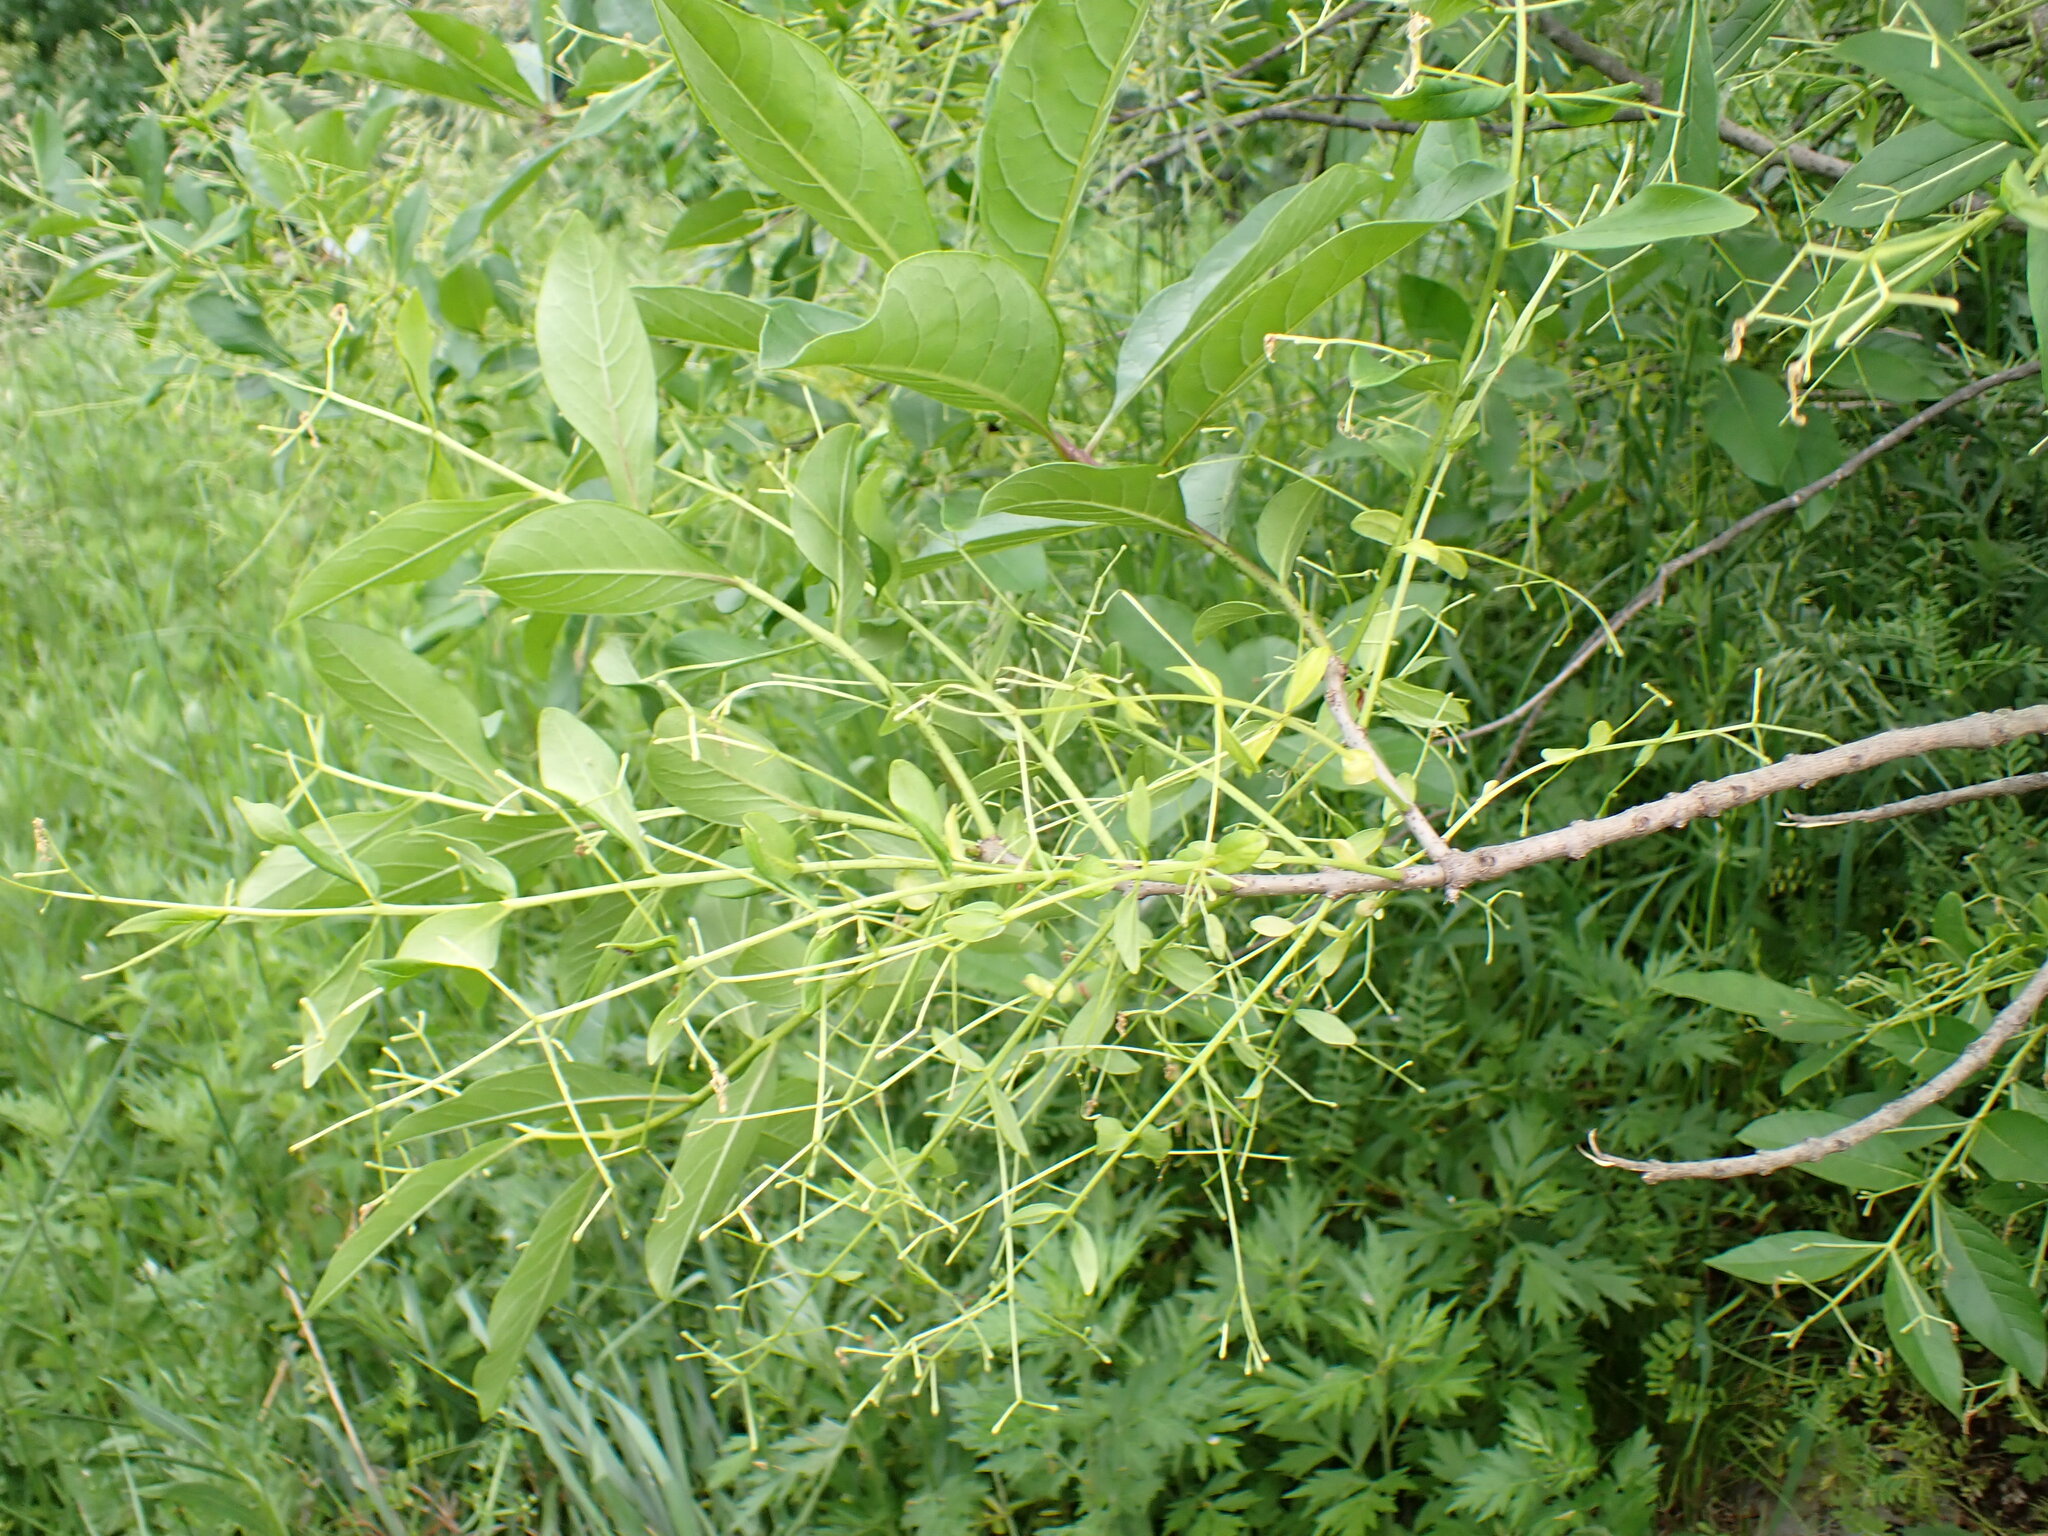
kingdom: Plantae
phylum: Tracheophyta
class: Magnoliopsida
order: Lamiales
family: Oleaceae
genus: Chionanthus
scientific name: Chionanthus virginicus
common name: American fringetree
